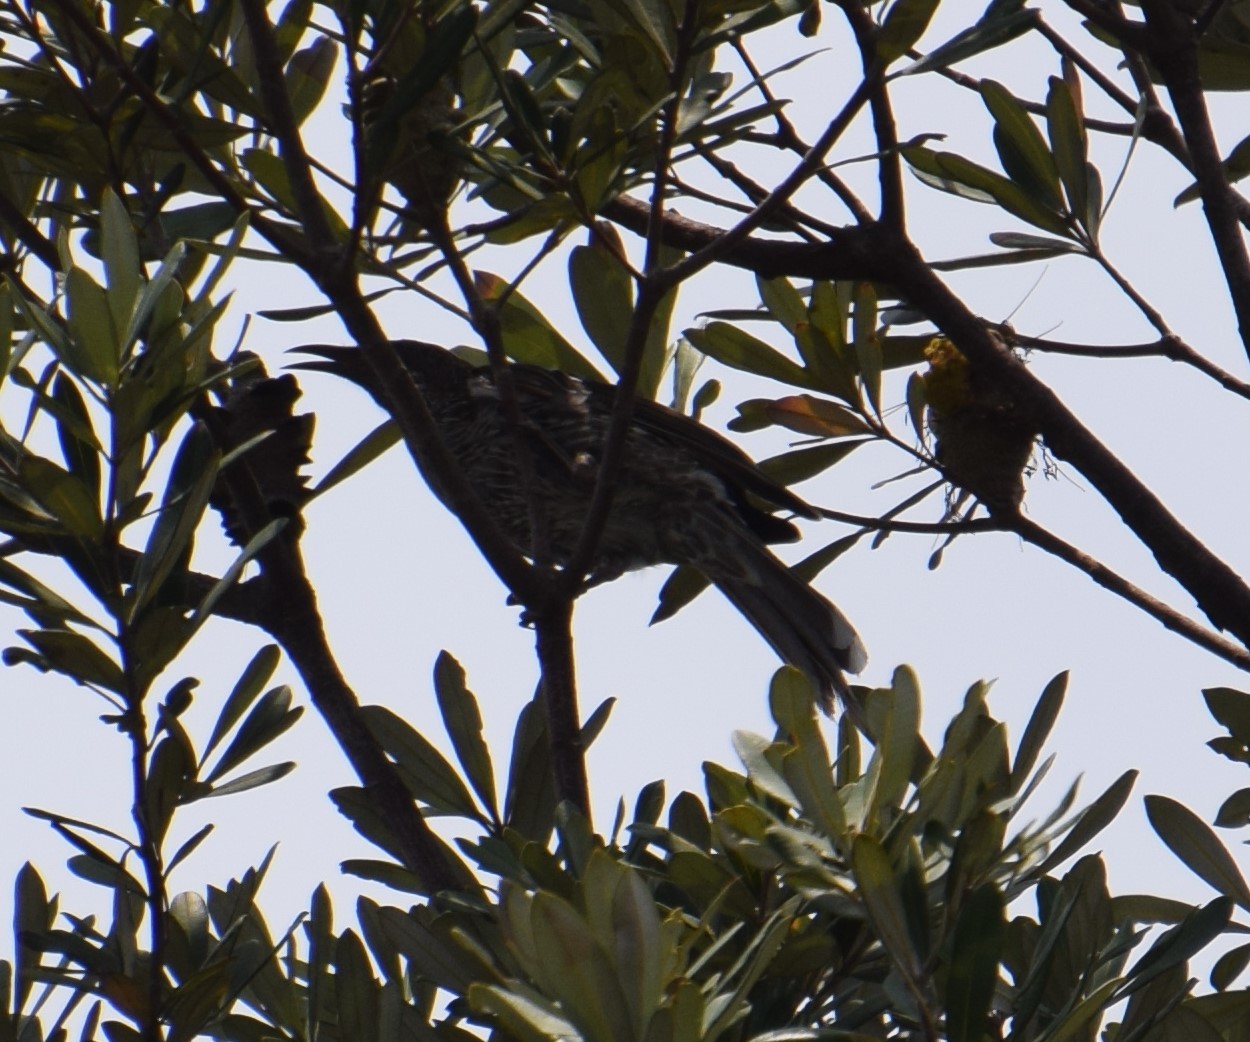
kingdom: Animalia
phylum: Chordata
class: Aves
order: Passeriformes
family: Meliphagidae
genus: Anthochaera
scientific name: Anthochaera chrysoptera
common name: Little wattlebird
